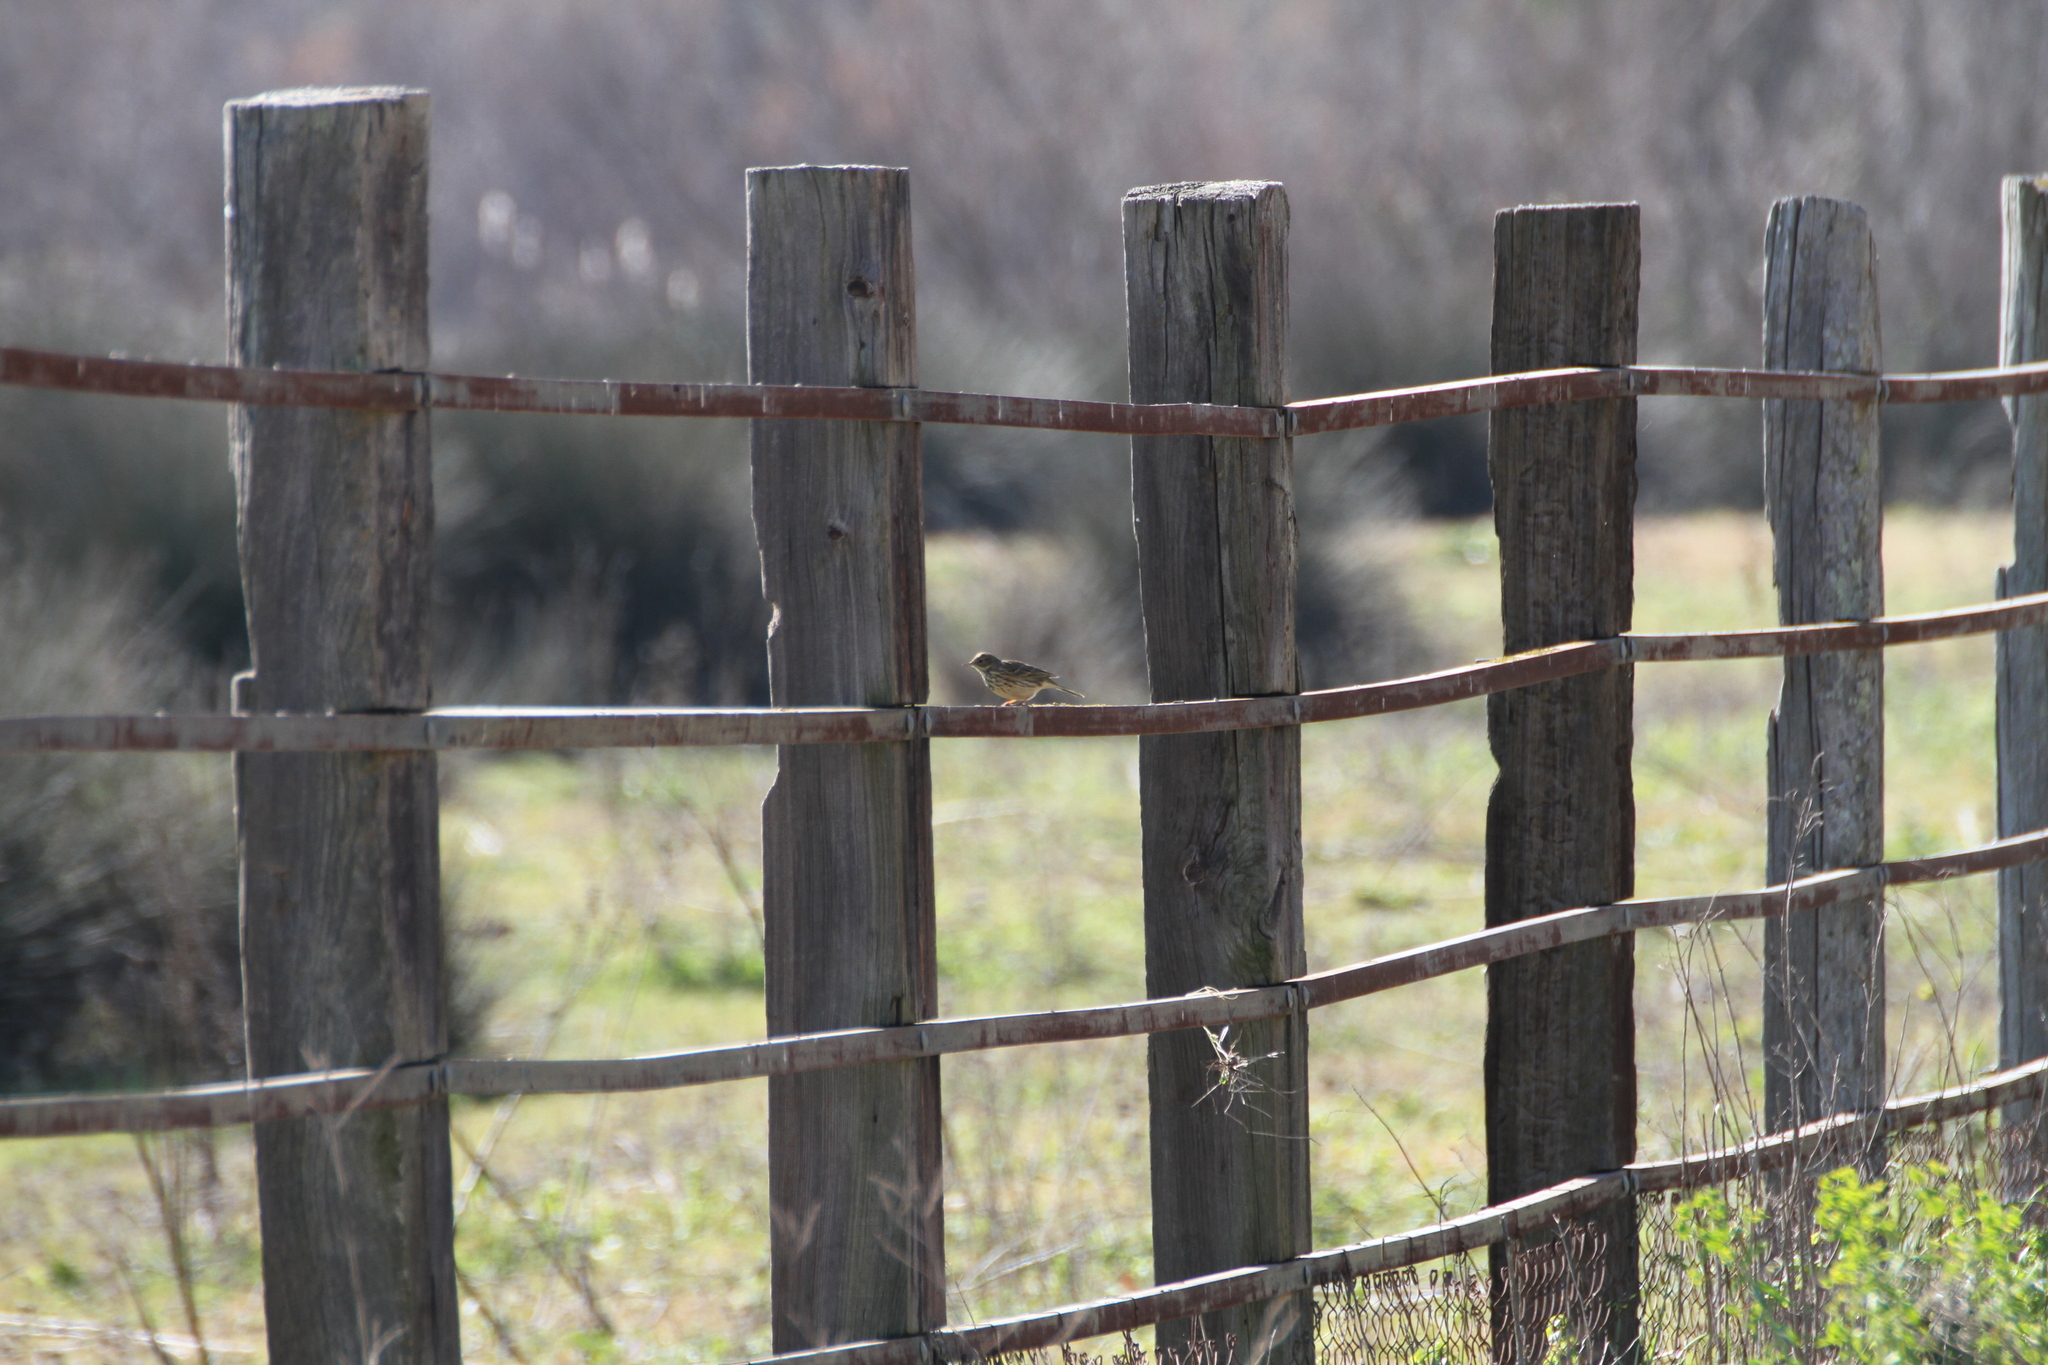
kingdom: Animalia
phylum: Chordata
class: Aves
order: Passeriformes
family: Motacillidae
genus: Anthus
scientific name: Anthus pratensis
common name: Meadow pipit
